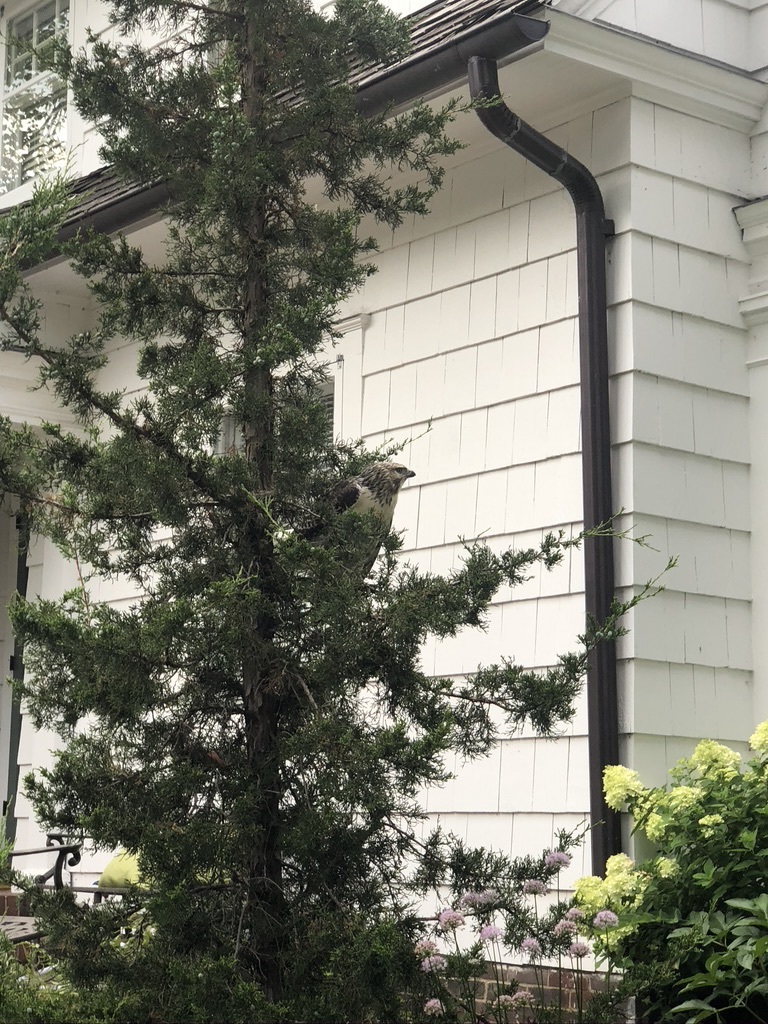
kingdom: Animalia
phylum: Chordata
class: Aves
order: Accipitriformes
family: Accipitridae
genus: Buteo
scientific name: Buteo jamaicensis
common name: Red-tailed hawk
